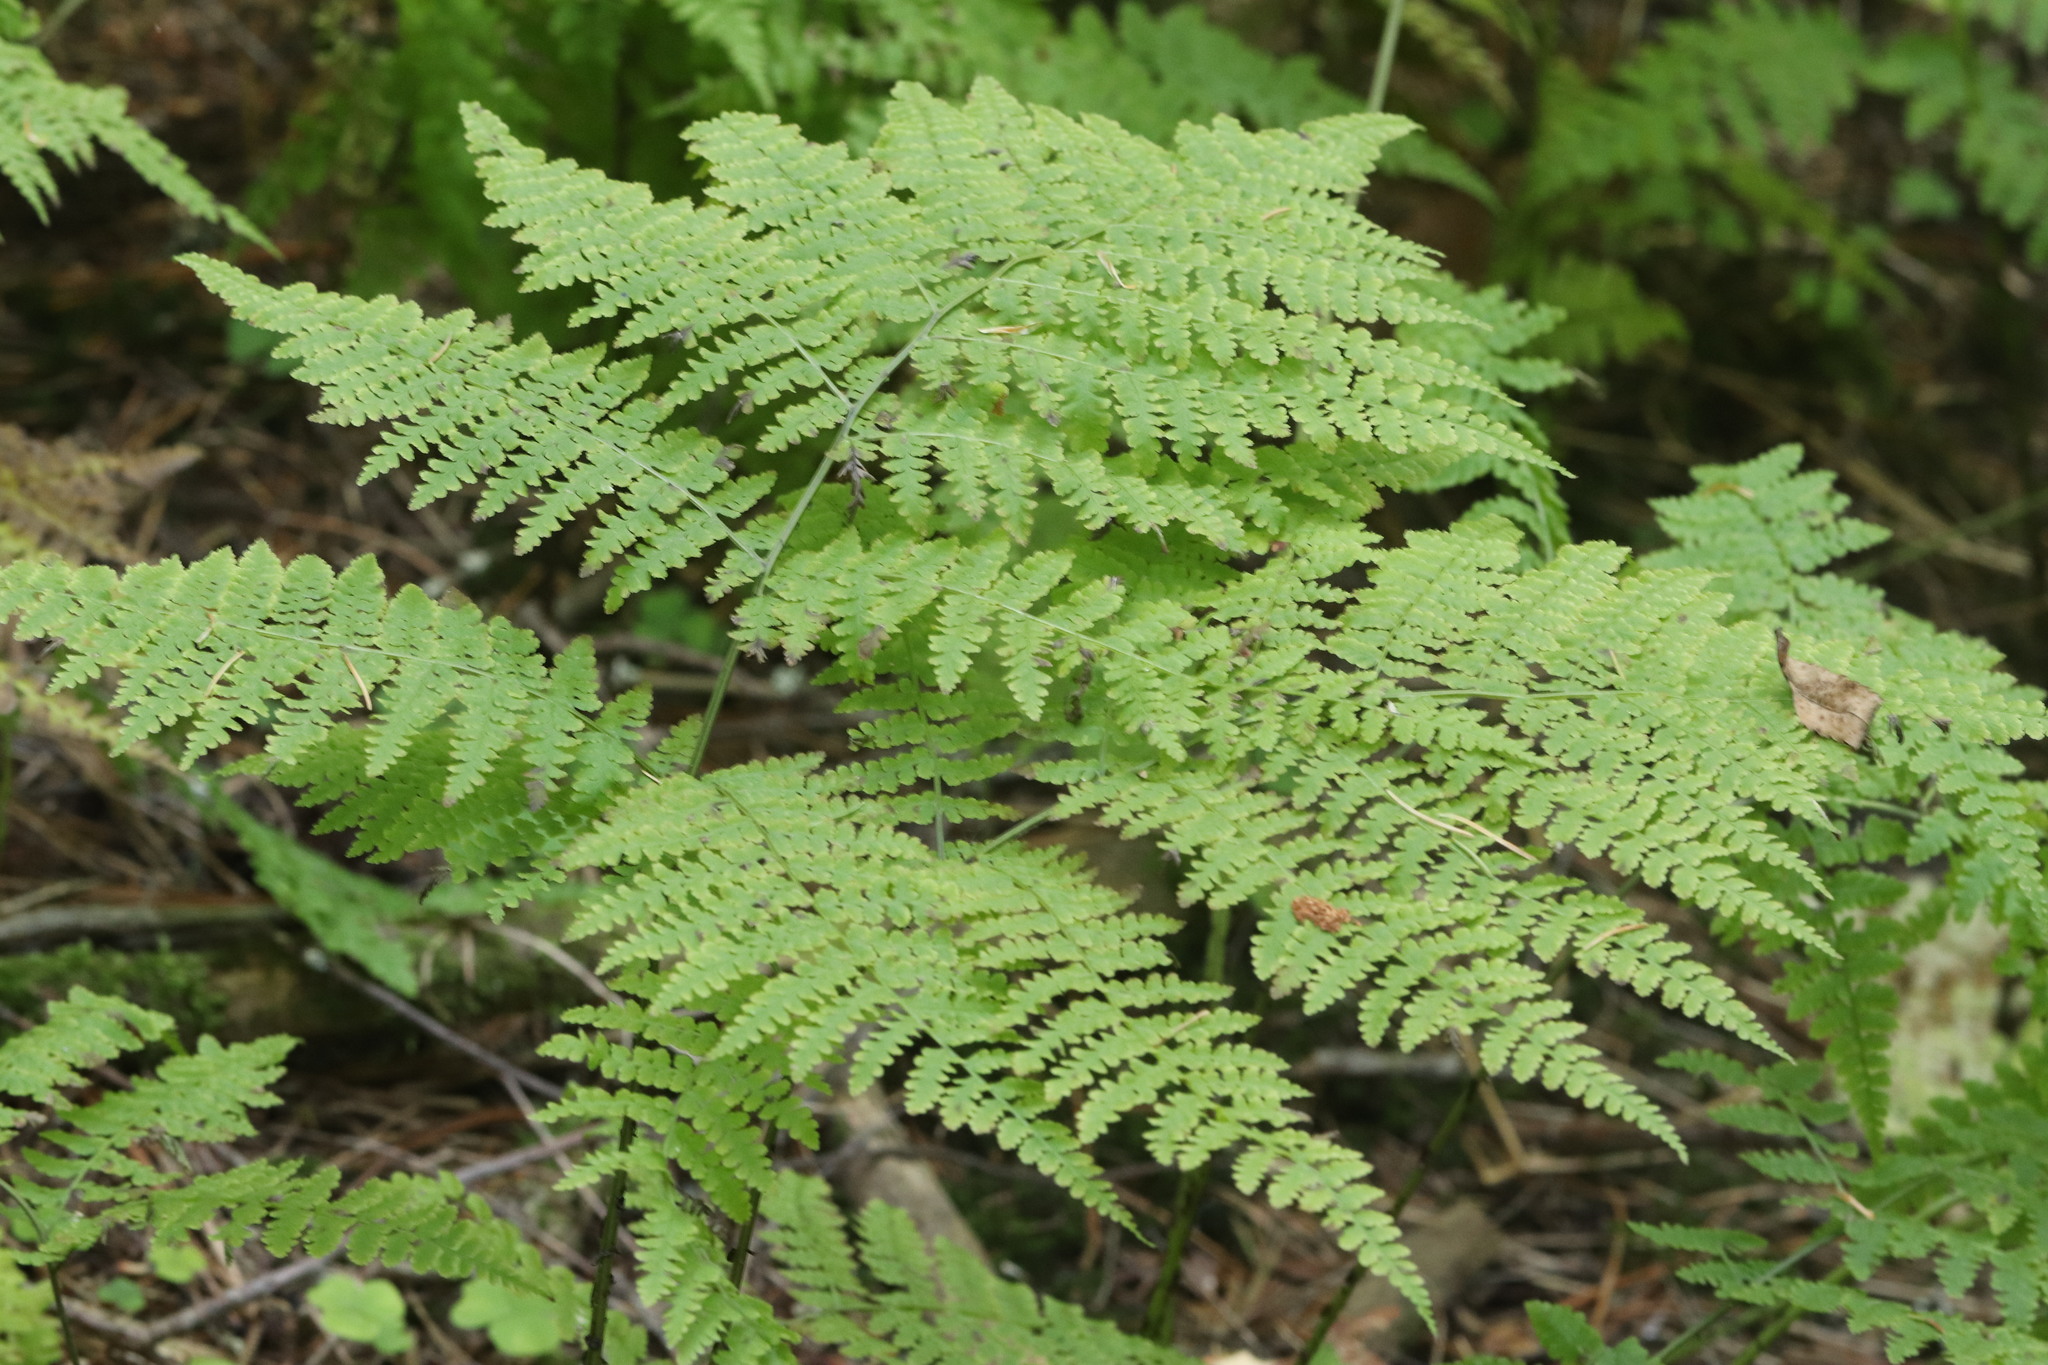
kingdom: Plantae
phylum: Tracheophyta
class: Polypodiopsida
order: Polypodiales
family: Athyriaceae
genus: Diplazium
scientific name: Diplazium sibiricum
